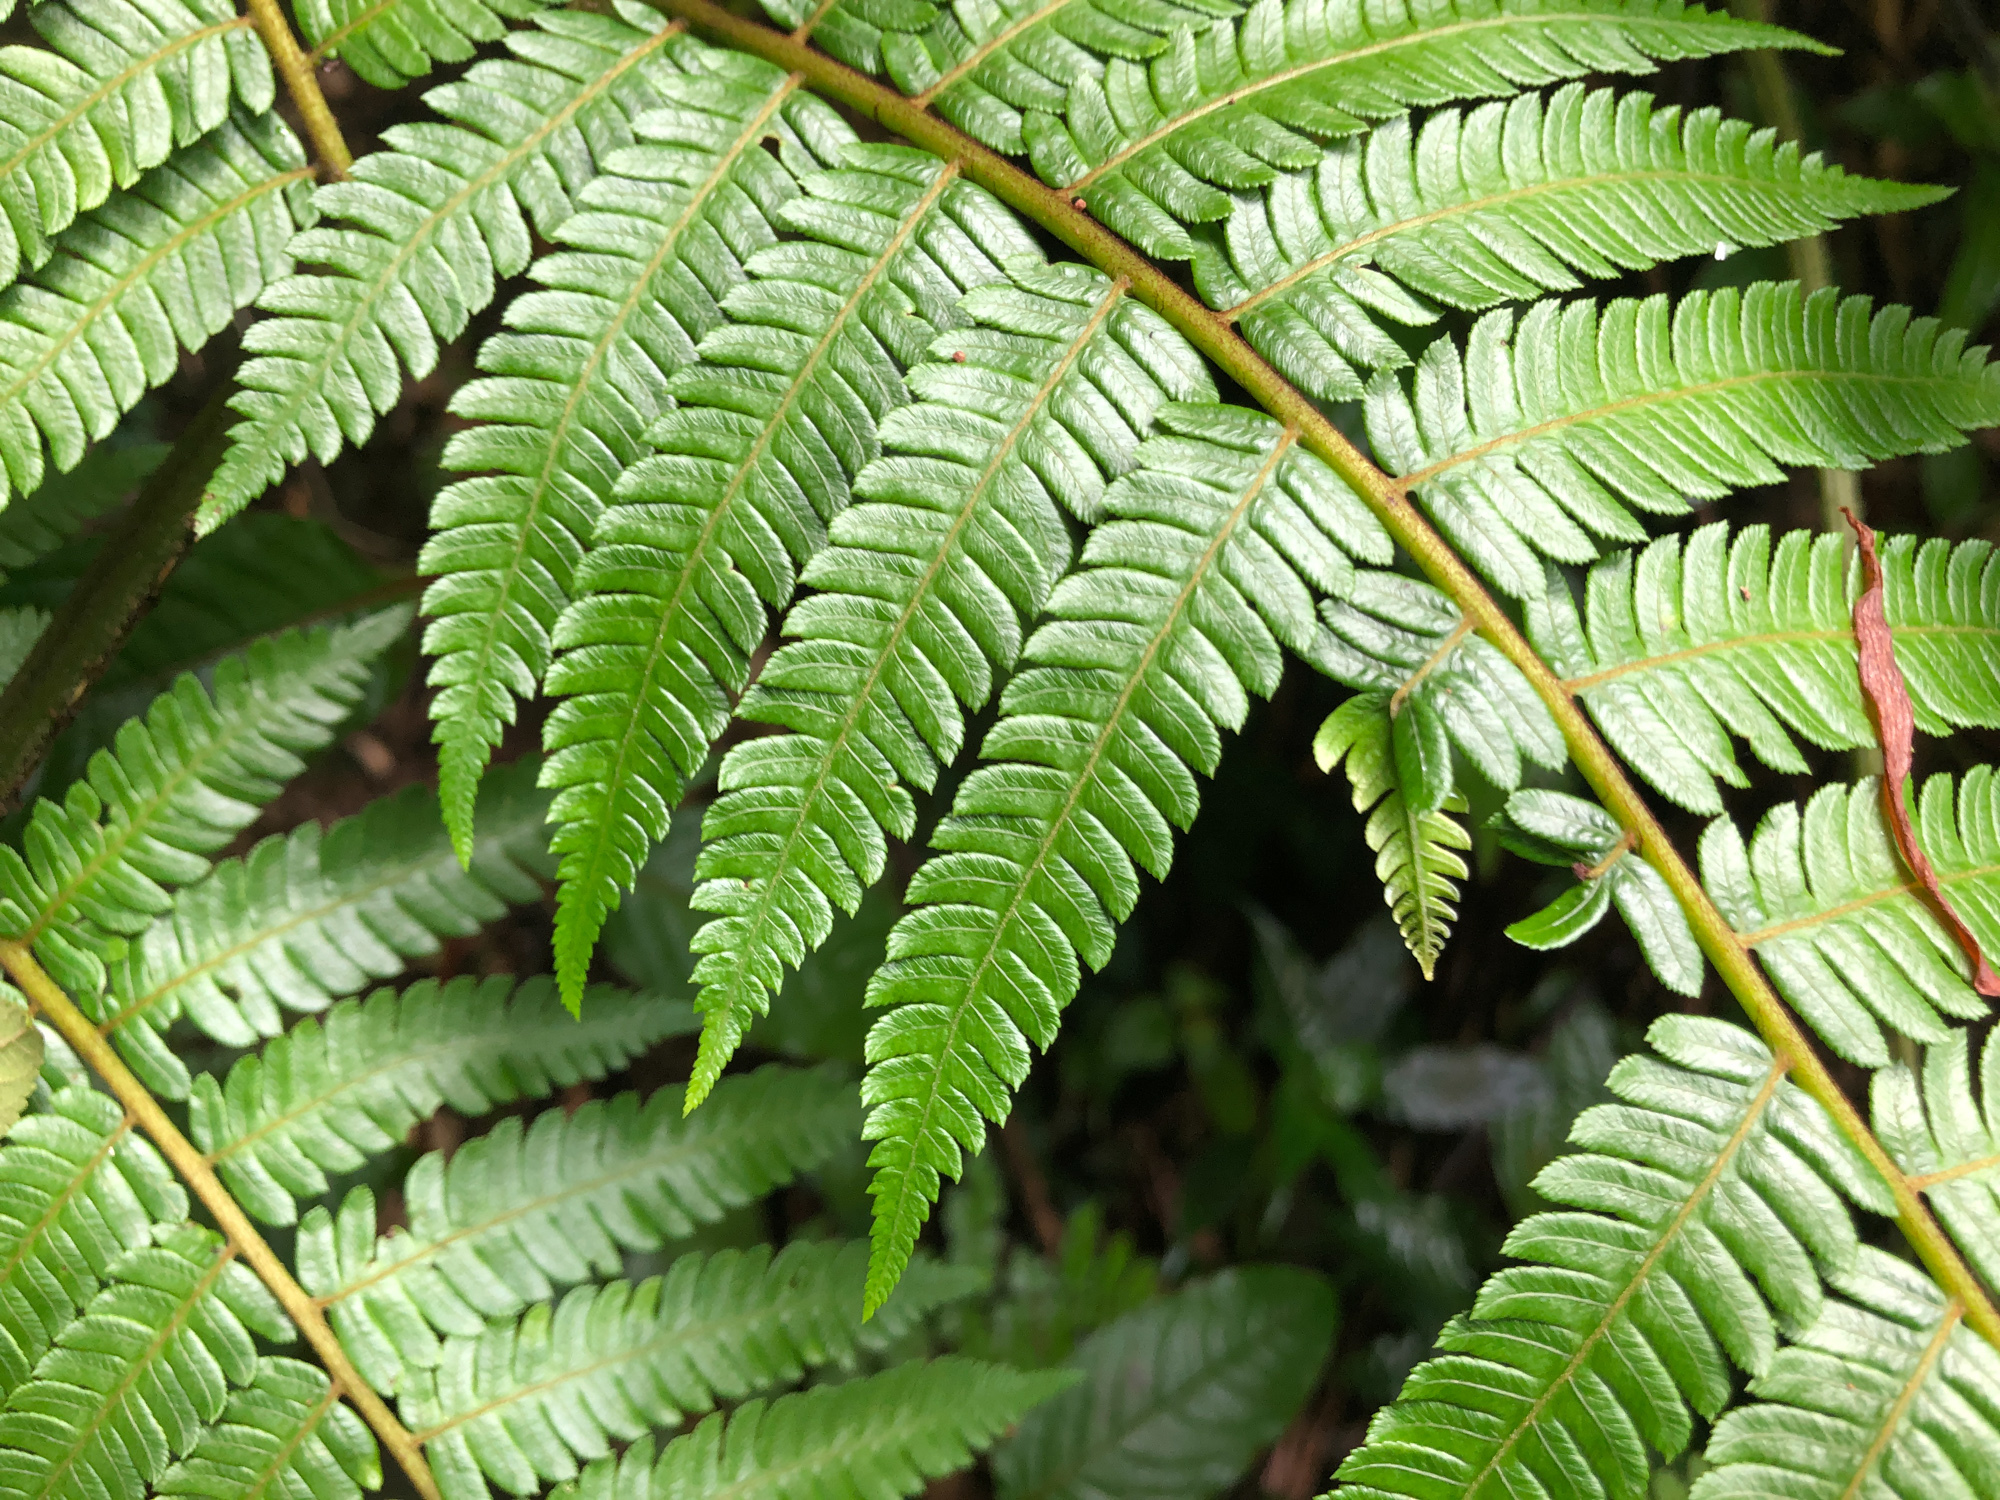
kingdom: Plantae
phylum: Tracheophyta
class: Polypodiopsida
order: Cyatheales
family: Cyatheaceae
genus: Alsophila
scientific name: Alsophila spinulosa
